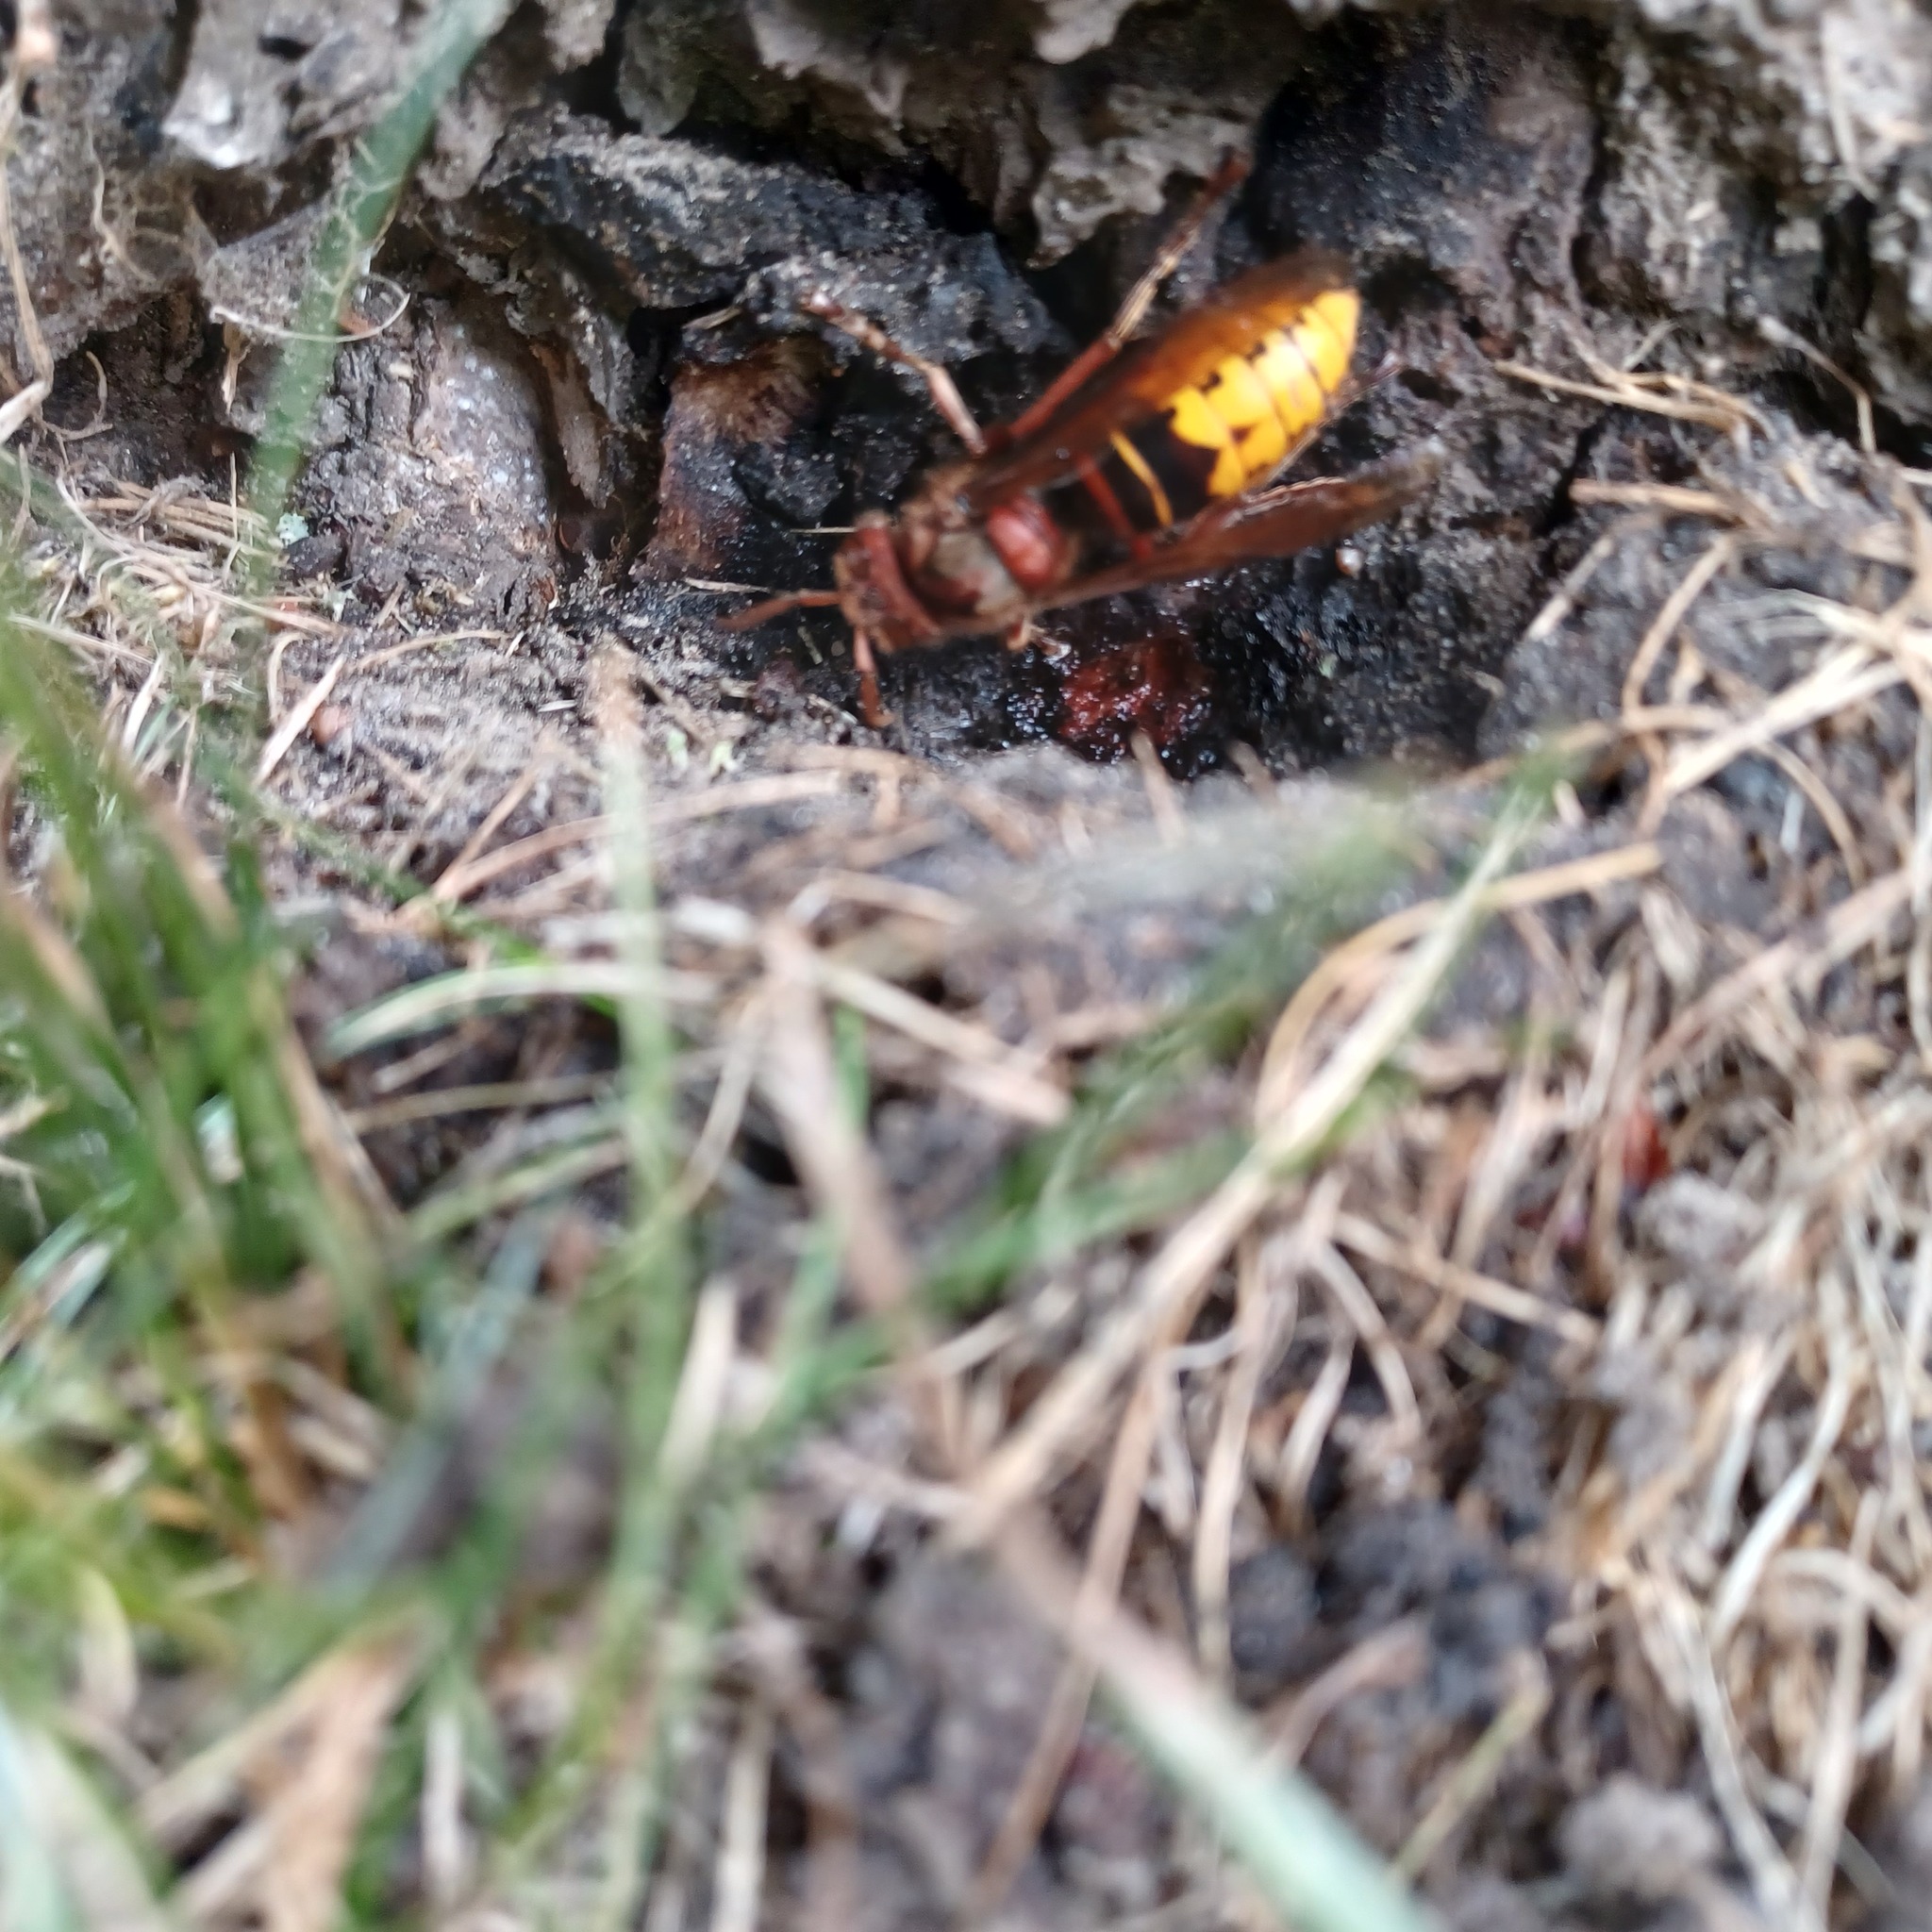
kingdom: Animalia
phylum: Arthropoda
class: Insecta
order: Hymenoptera
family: Vespidae
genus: Vespa
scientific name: Vespa crabro
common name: Hornet
